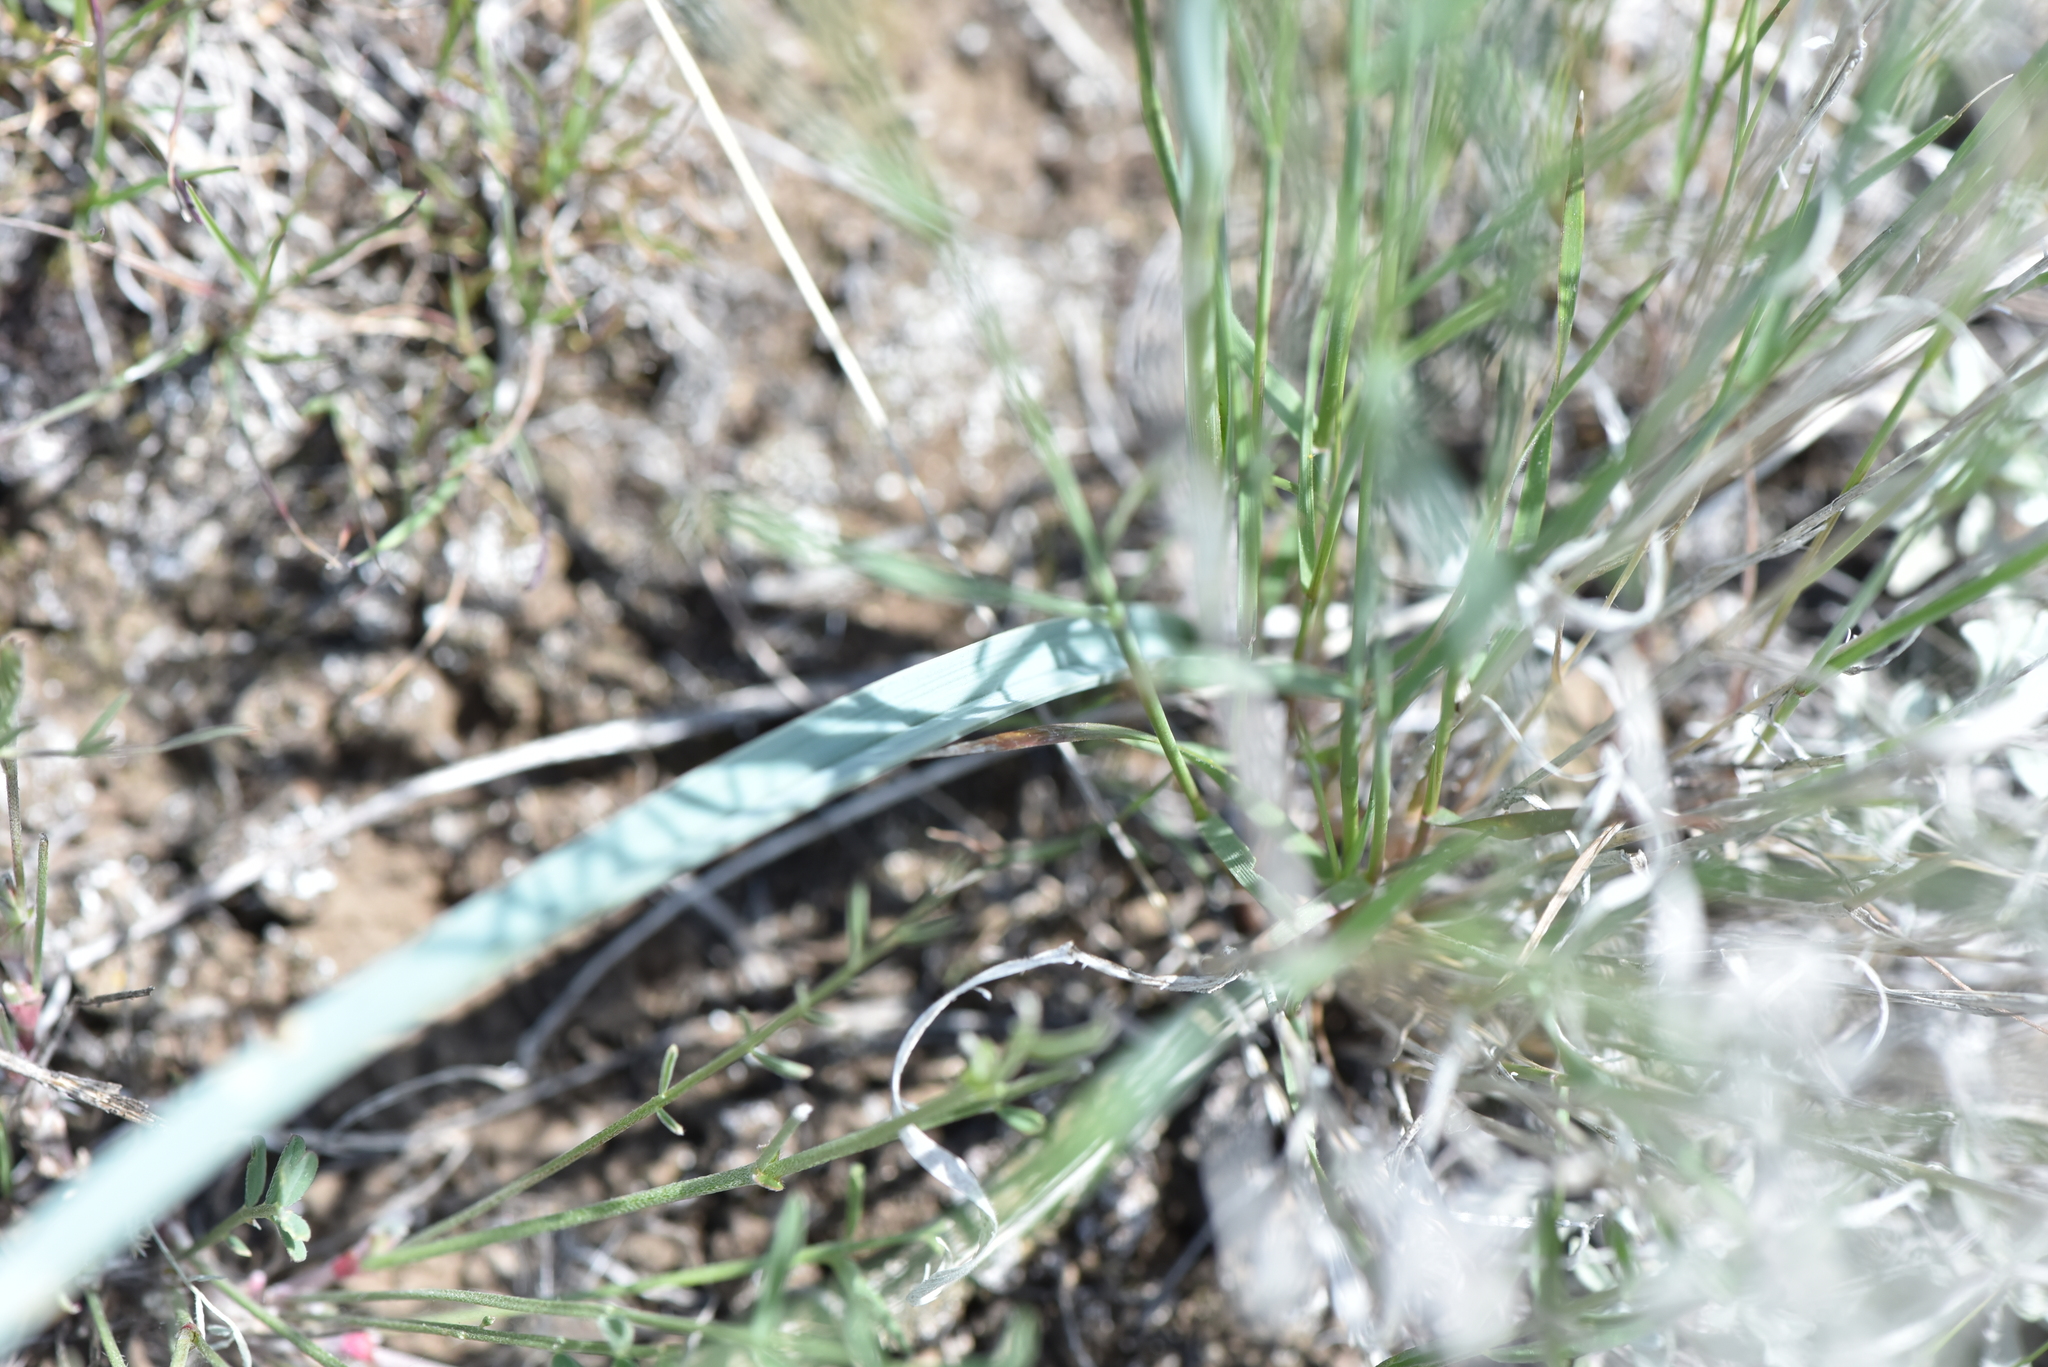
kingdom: Plantae
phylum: Tracheophyta
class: Liliopsida
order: Liliales
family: Liliaceae
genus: Calochortus
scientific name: Calochortus macrocarpus
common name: Green-band mariposa lily
